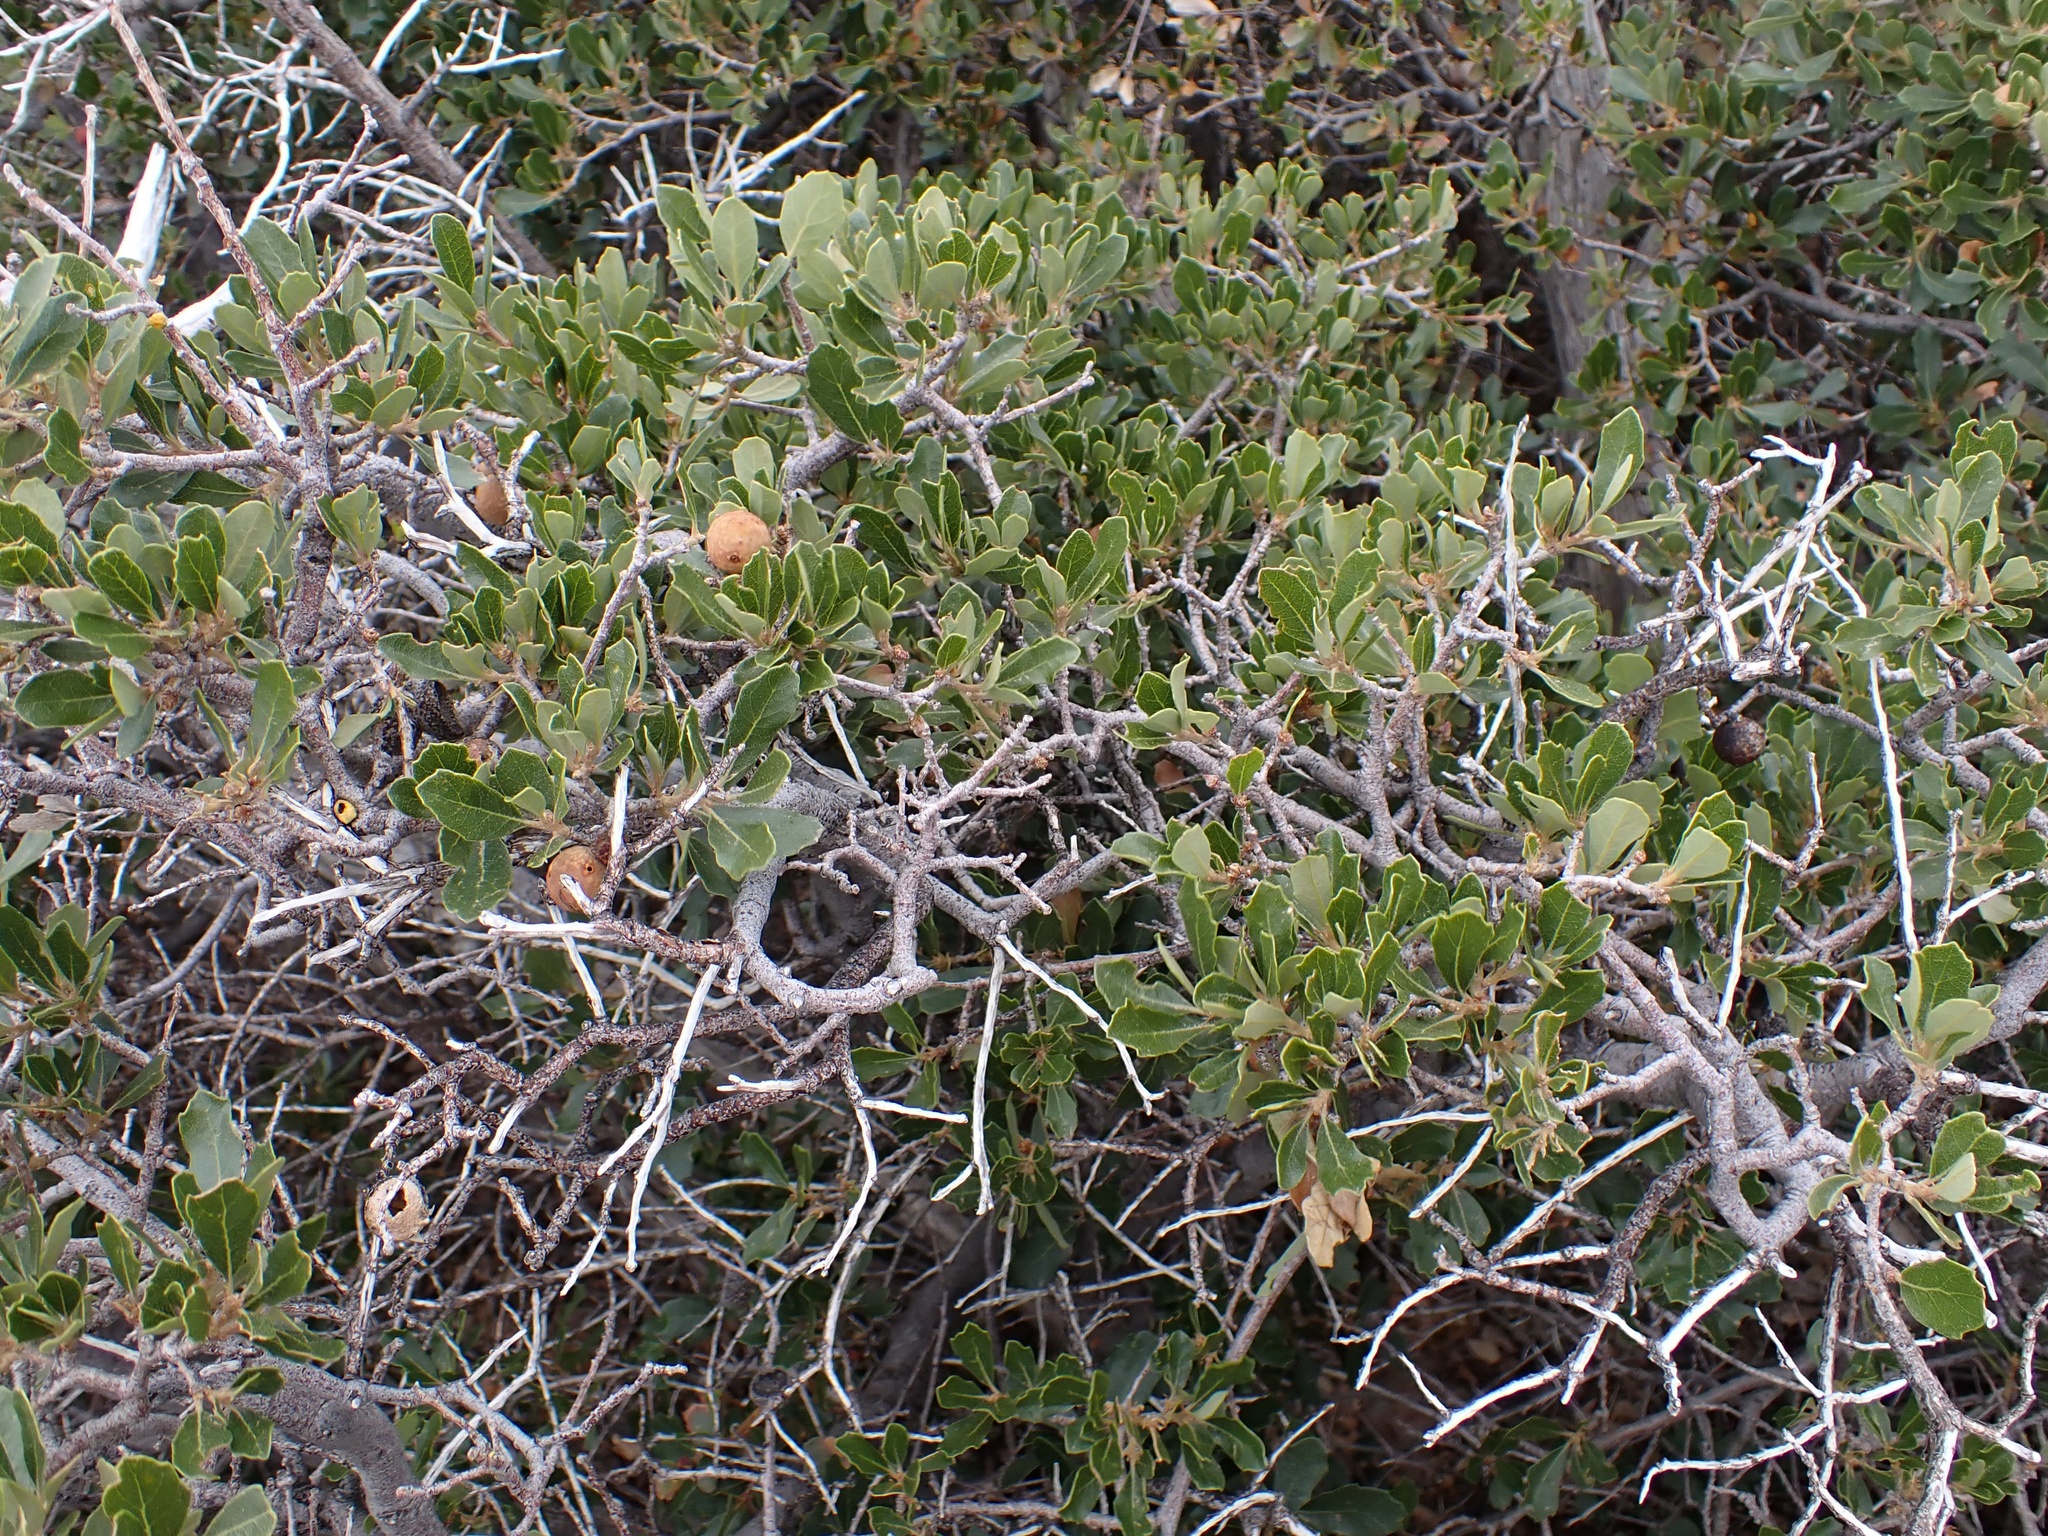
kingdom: Animalia
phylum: Arthropoda
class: Insecta
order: Hemiptera
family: Cerococcidae
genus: Cerococcus
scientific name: Cerococcus quercus
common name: Oak cerococcus
